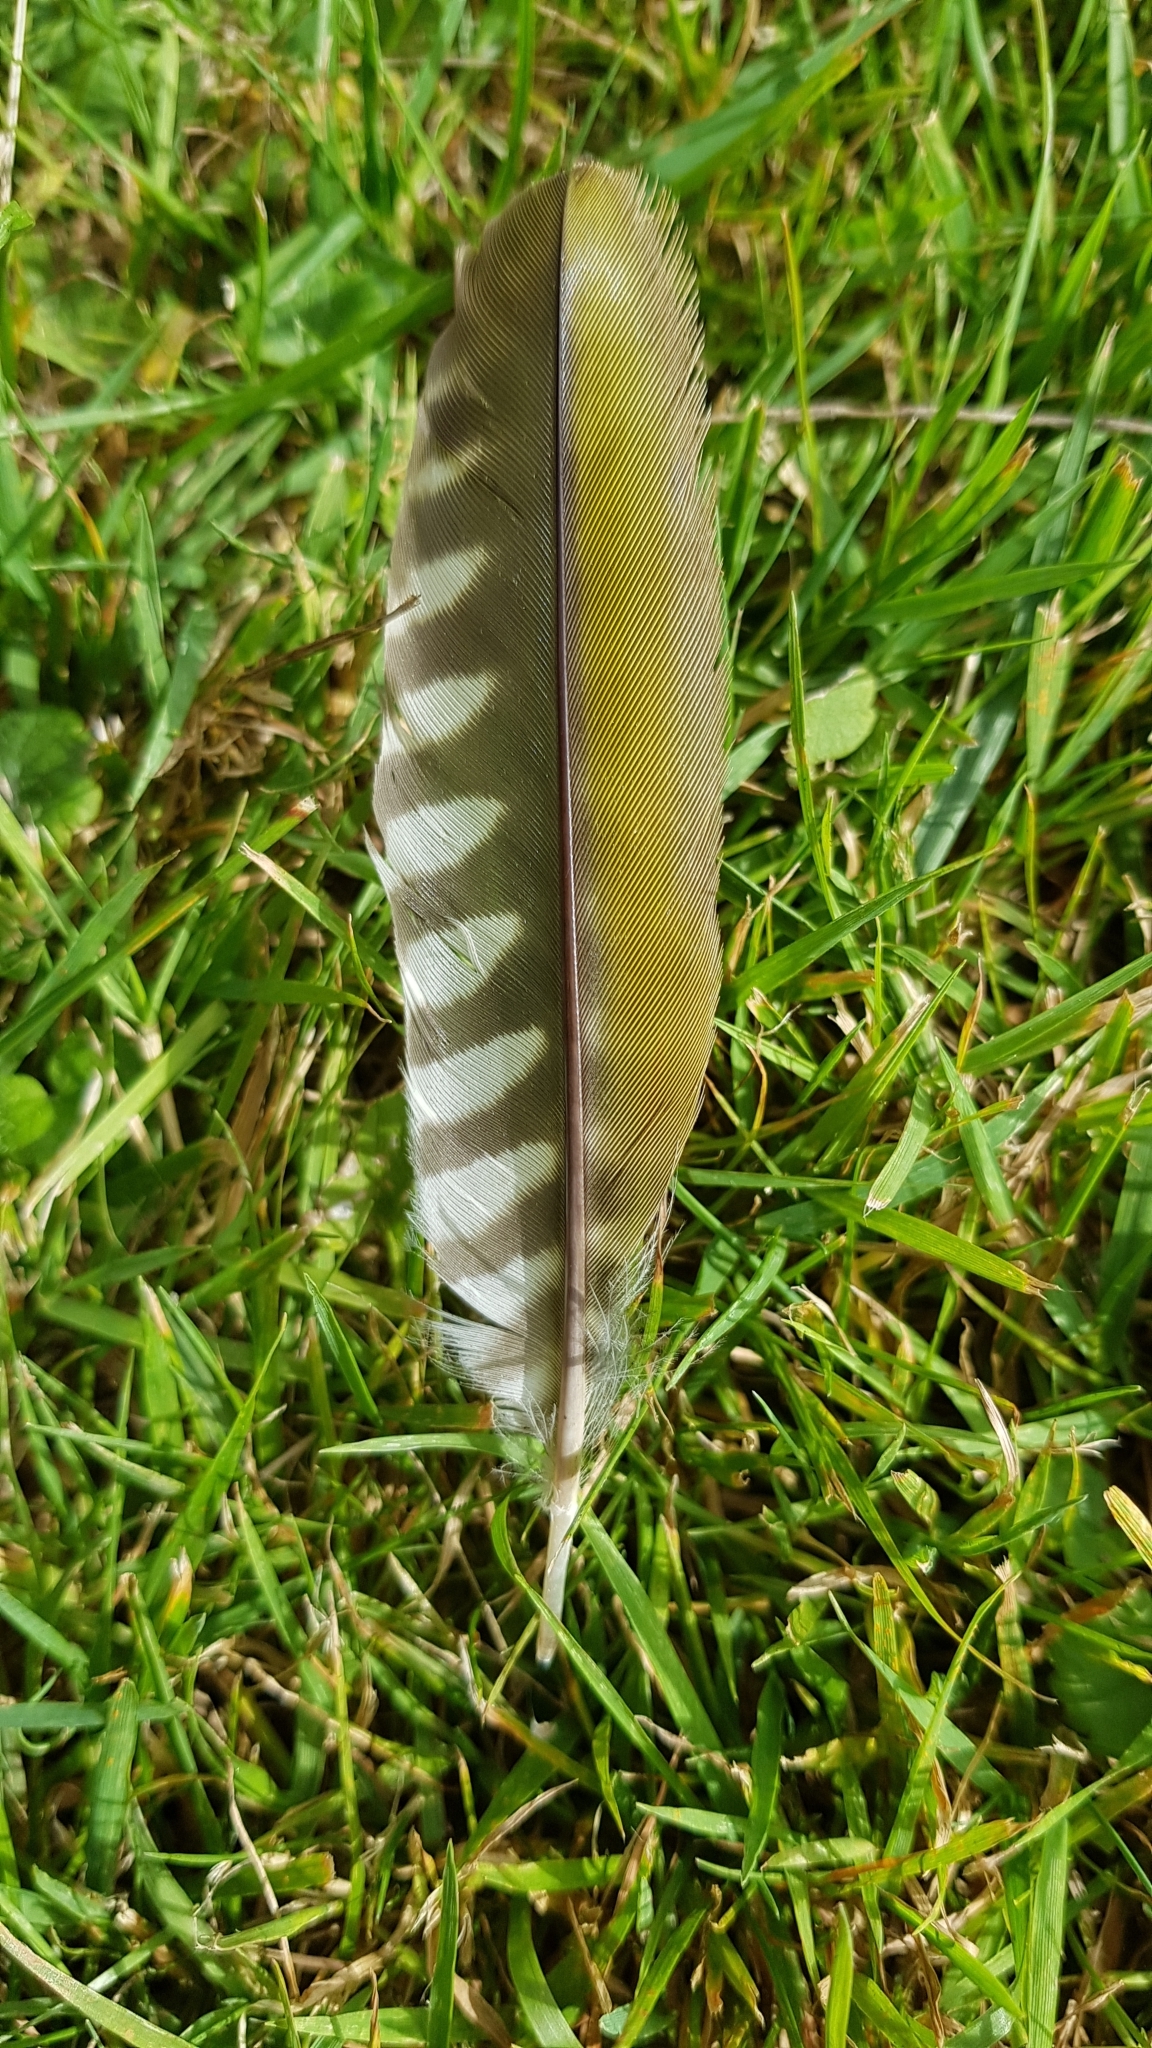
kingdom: Animalia
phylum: Chordata
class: Aves
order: Piciformes
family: Picidae
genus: Picus
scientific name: Picus viridis
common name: European green woodpecker
